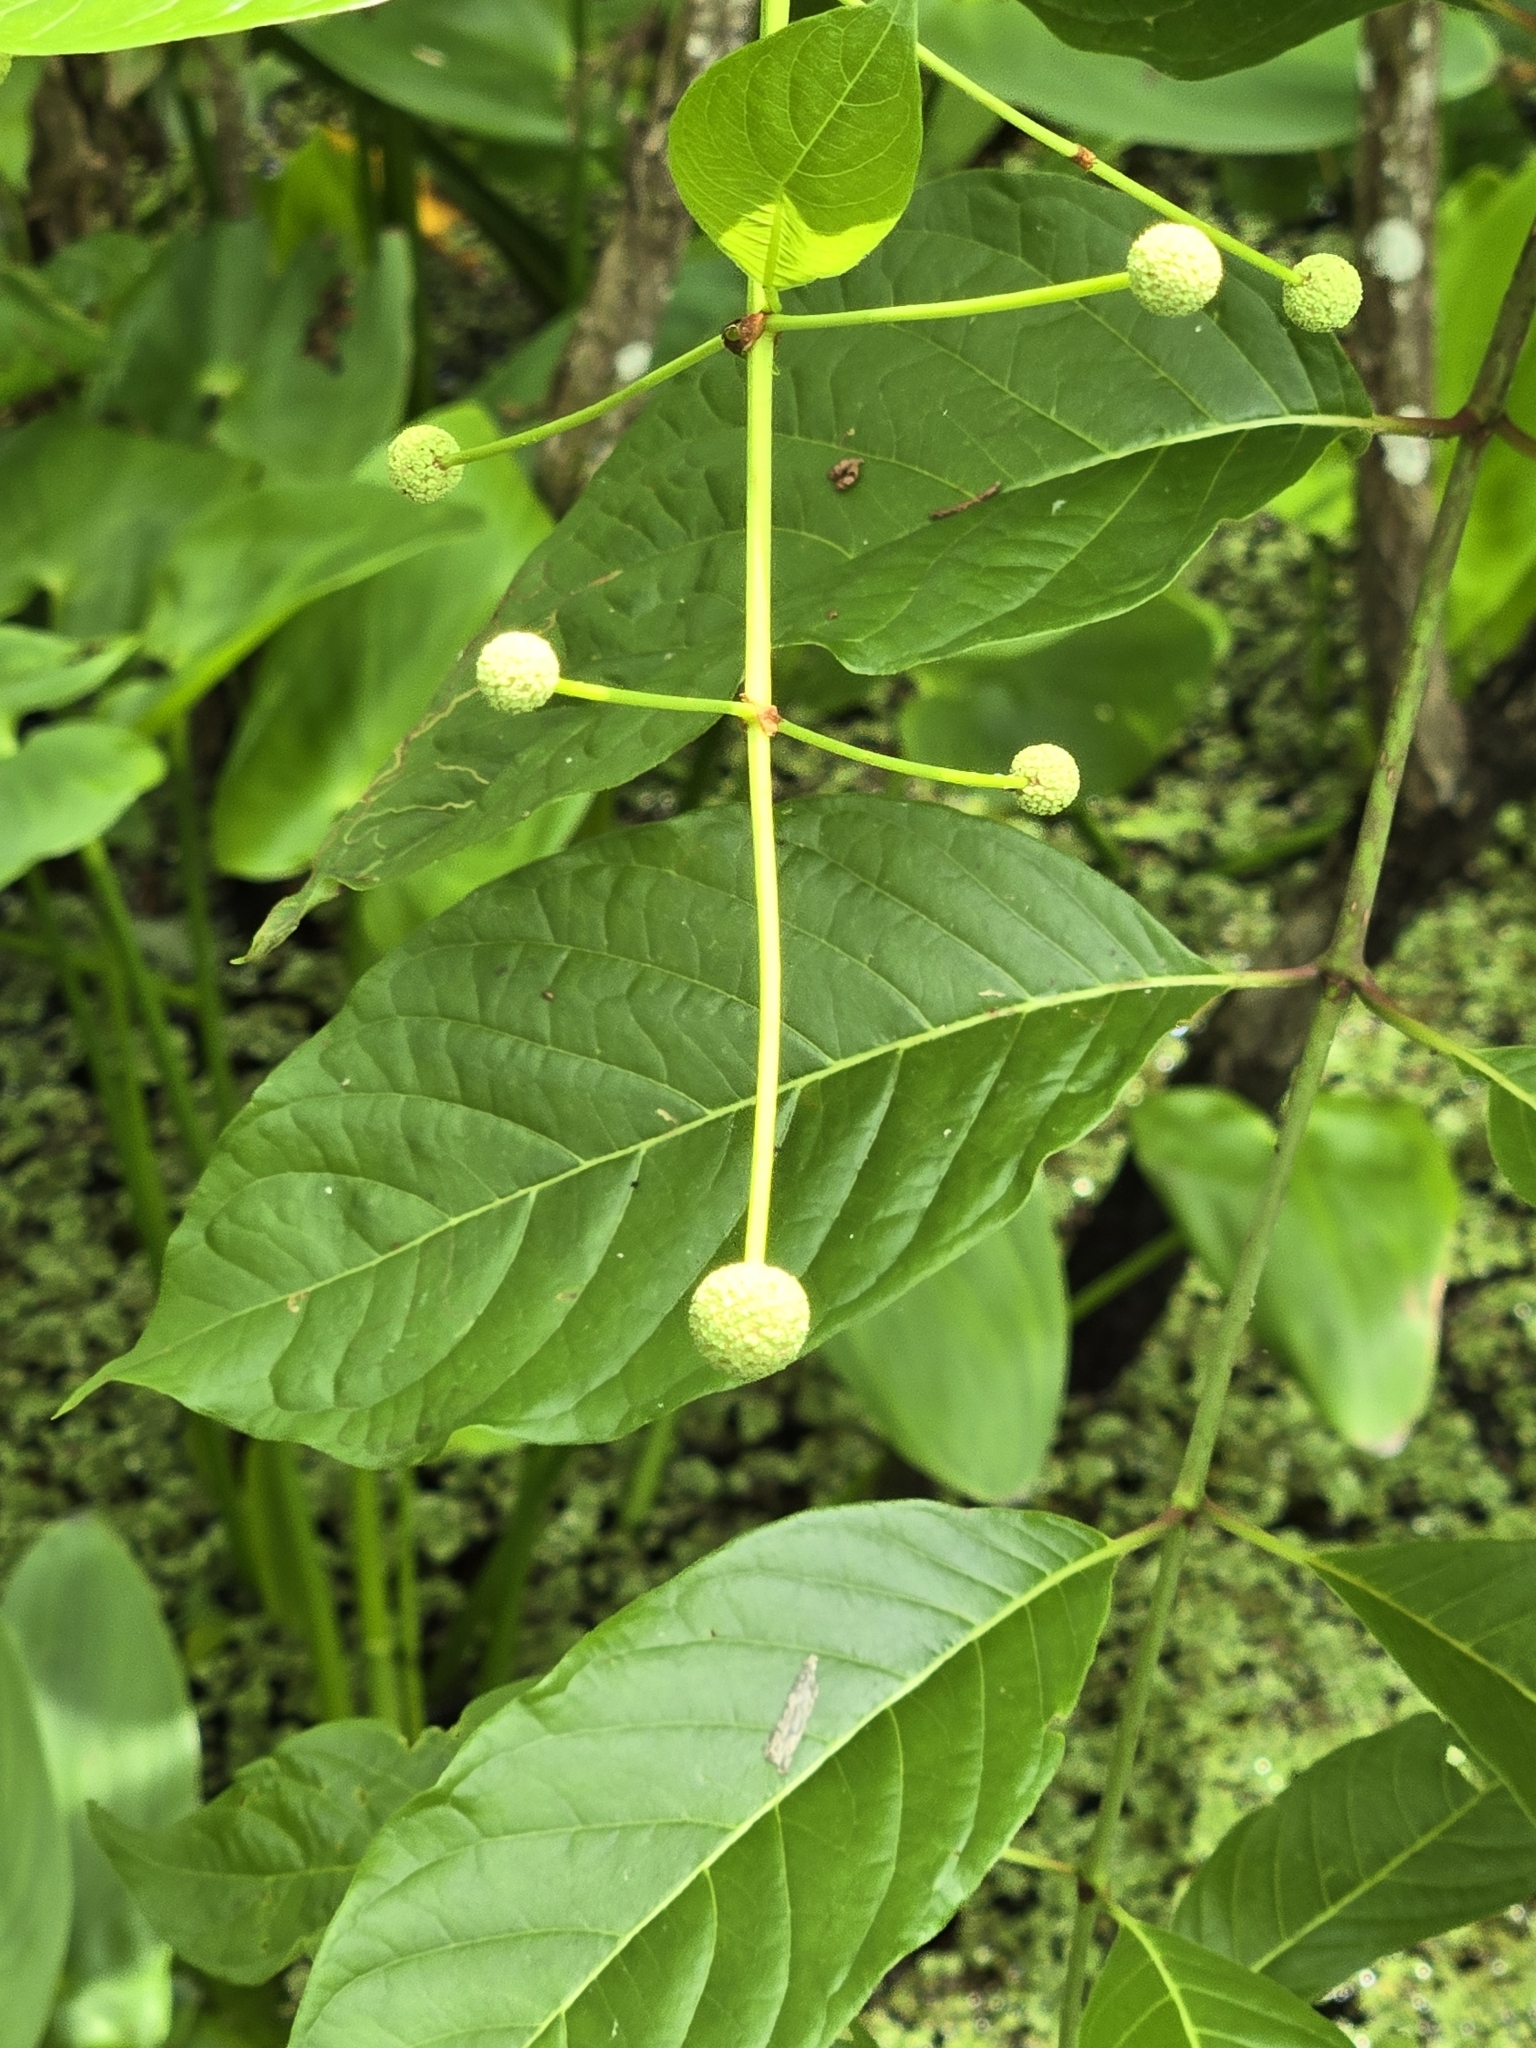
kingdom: Plantae
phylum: Tracheophyta
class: Magnoliopsida
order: Gentianales
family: Rubiaceae
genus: Cephalanthus
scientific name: Cephalanthus occidentalis
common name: Button-willow
